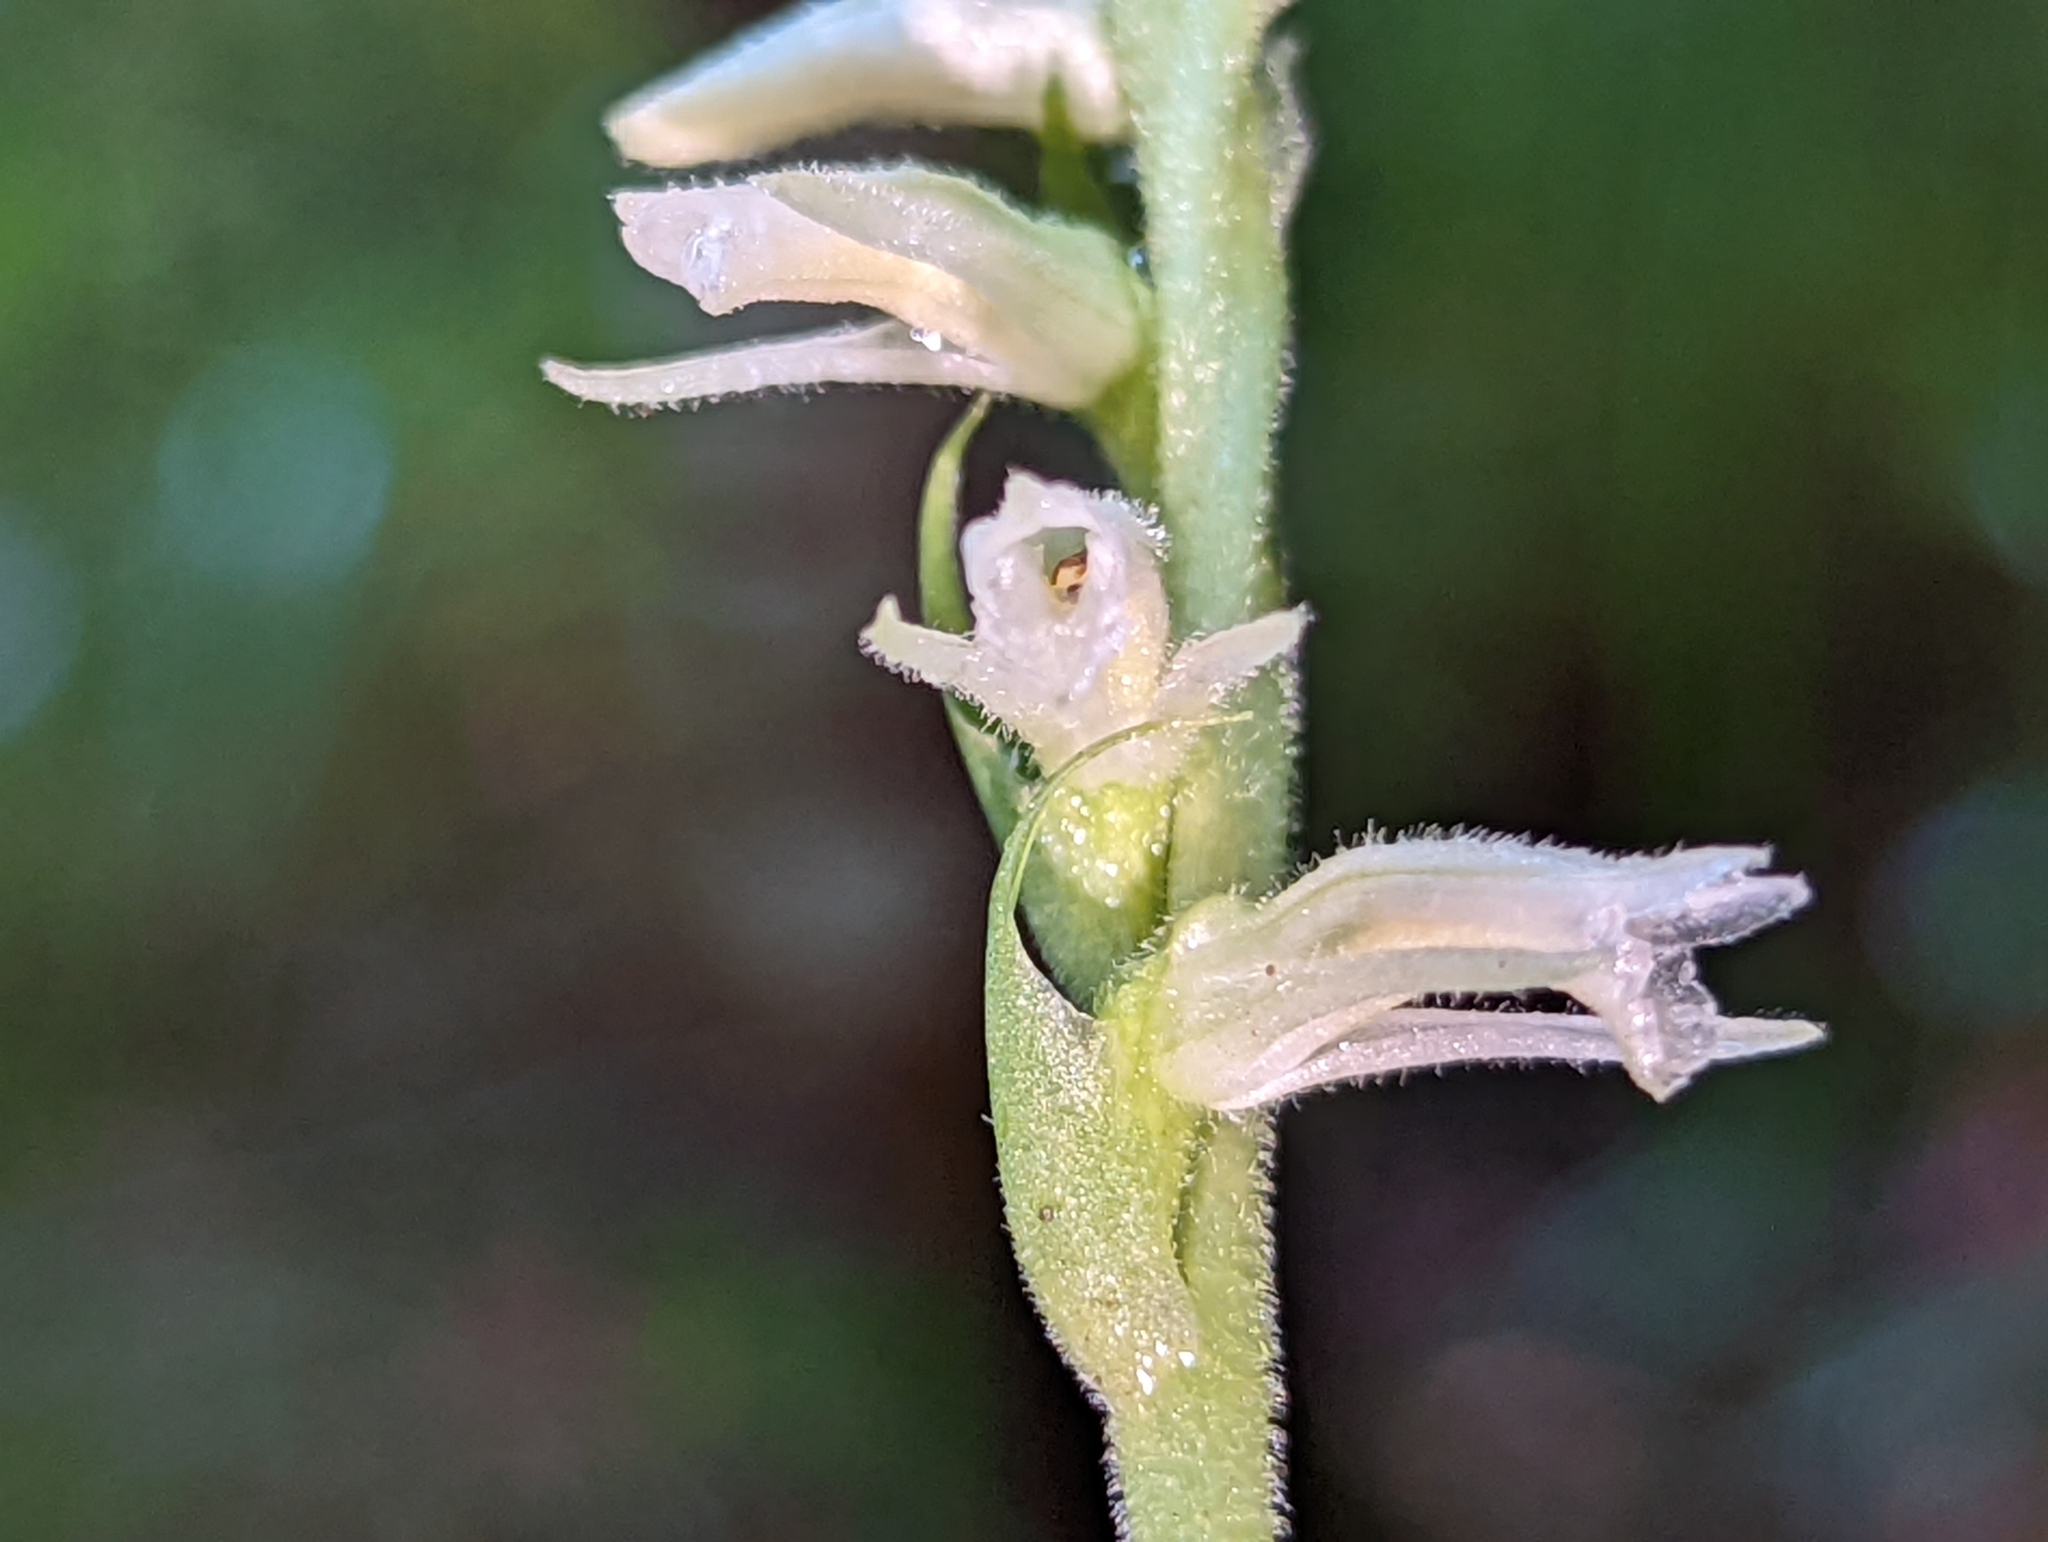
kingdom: Plantae
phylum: Tracheophyta
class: Liliopsida
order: Asparagales
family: Orchidaceae
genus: Spiranthes
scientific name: Spiranthes vernalis
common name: Spring ladies'-tresses
